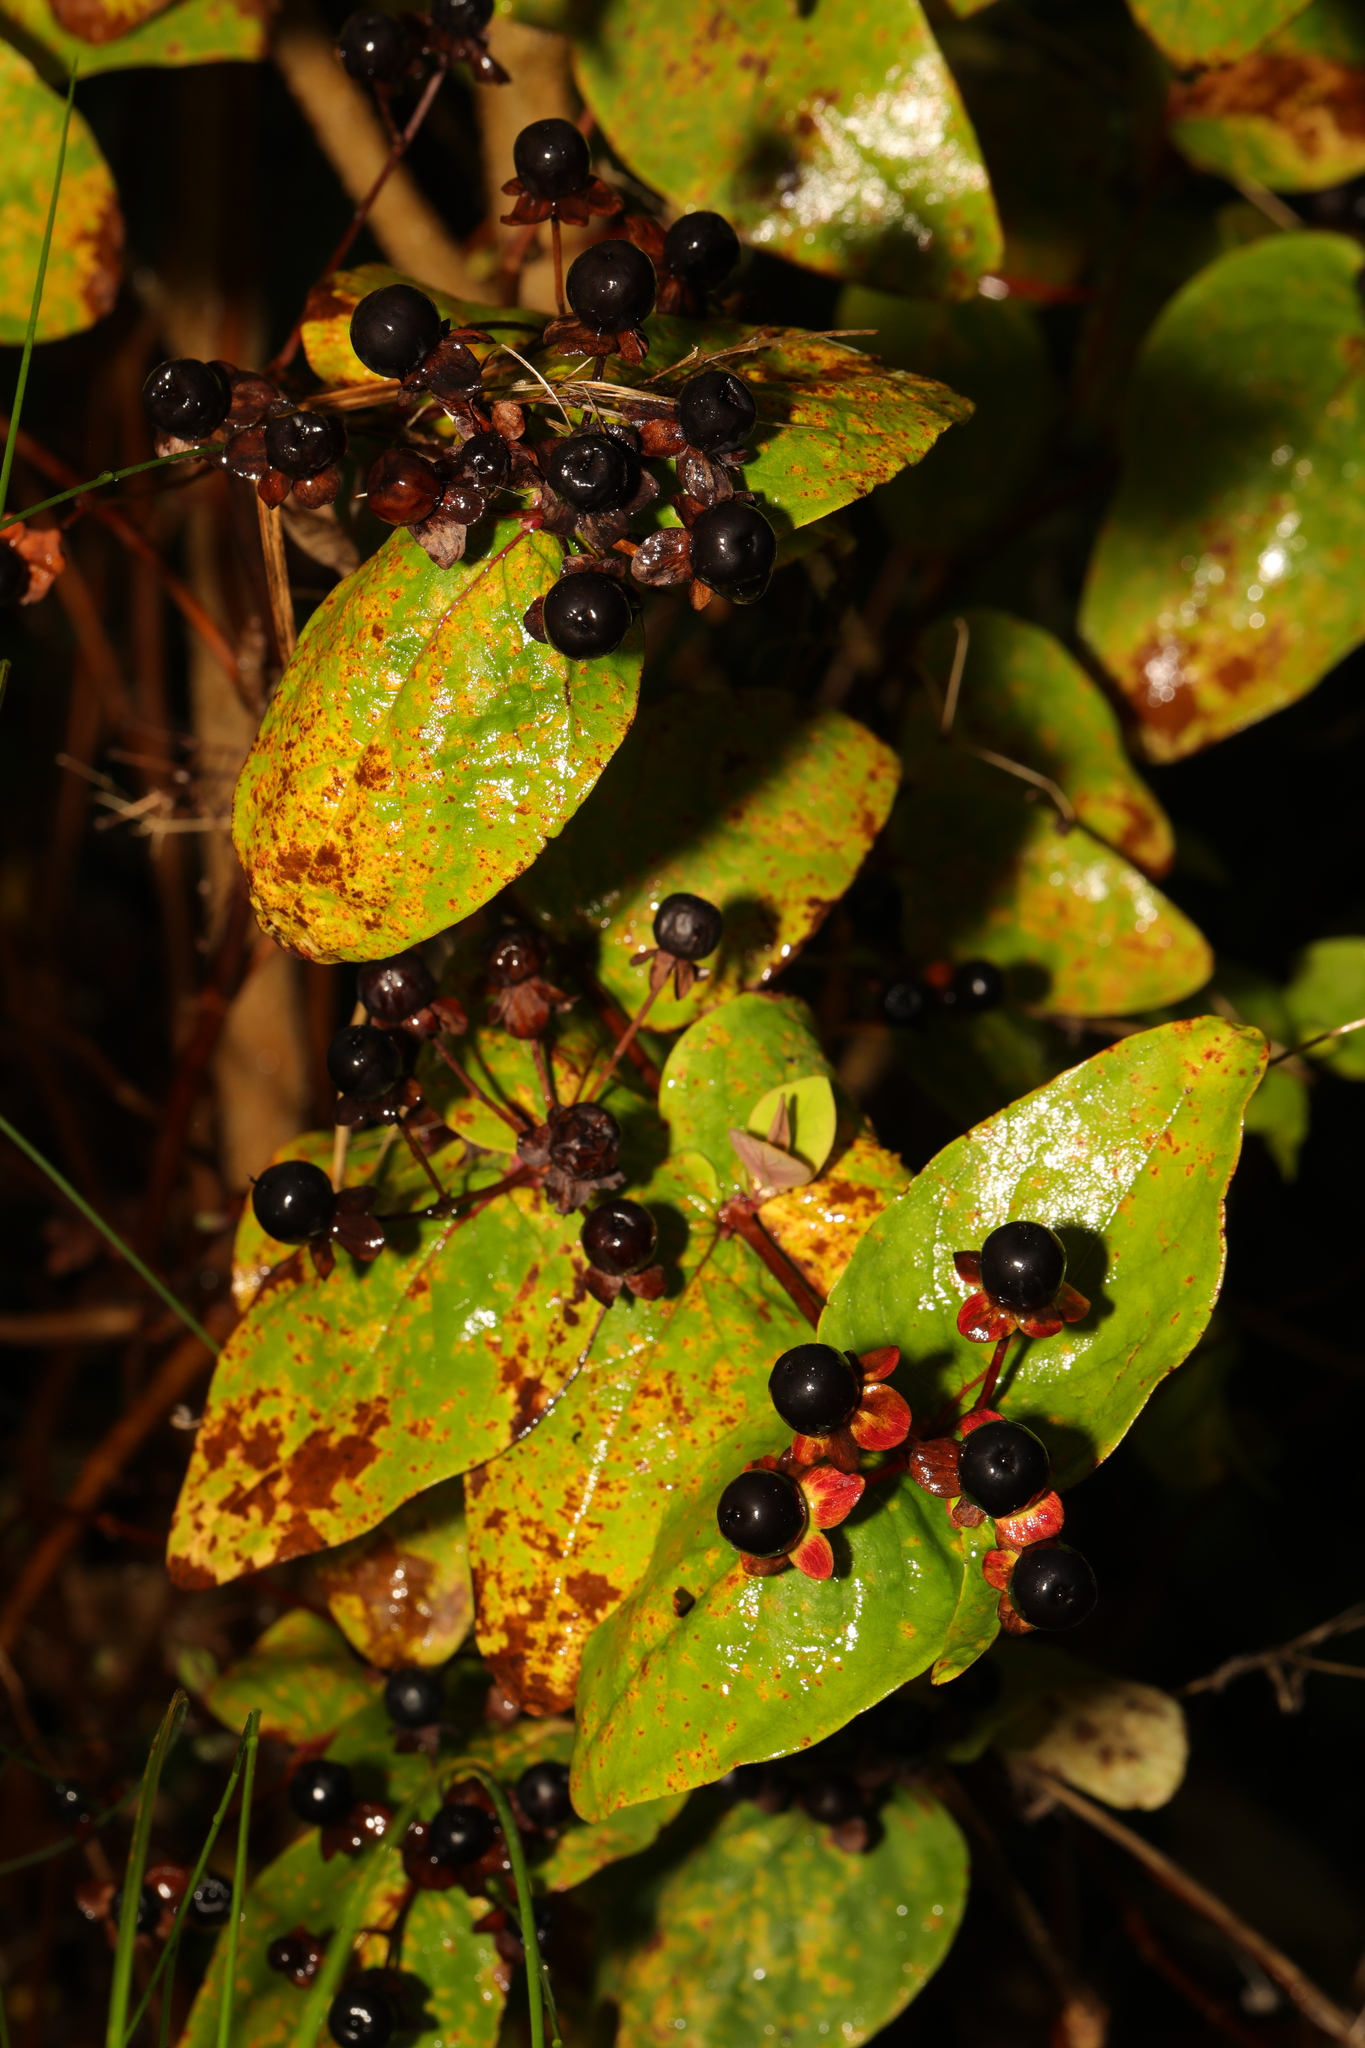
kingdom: Plantae
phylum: Tracheophyta
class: Magnoliopsida
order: Malpighiales
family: Hypericaceae
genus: Hypericum
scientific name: Hypericum androsaemum
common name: Sweet-amber
